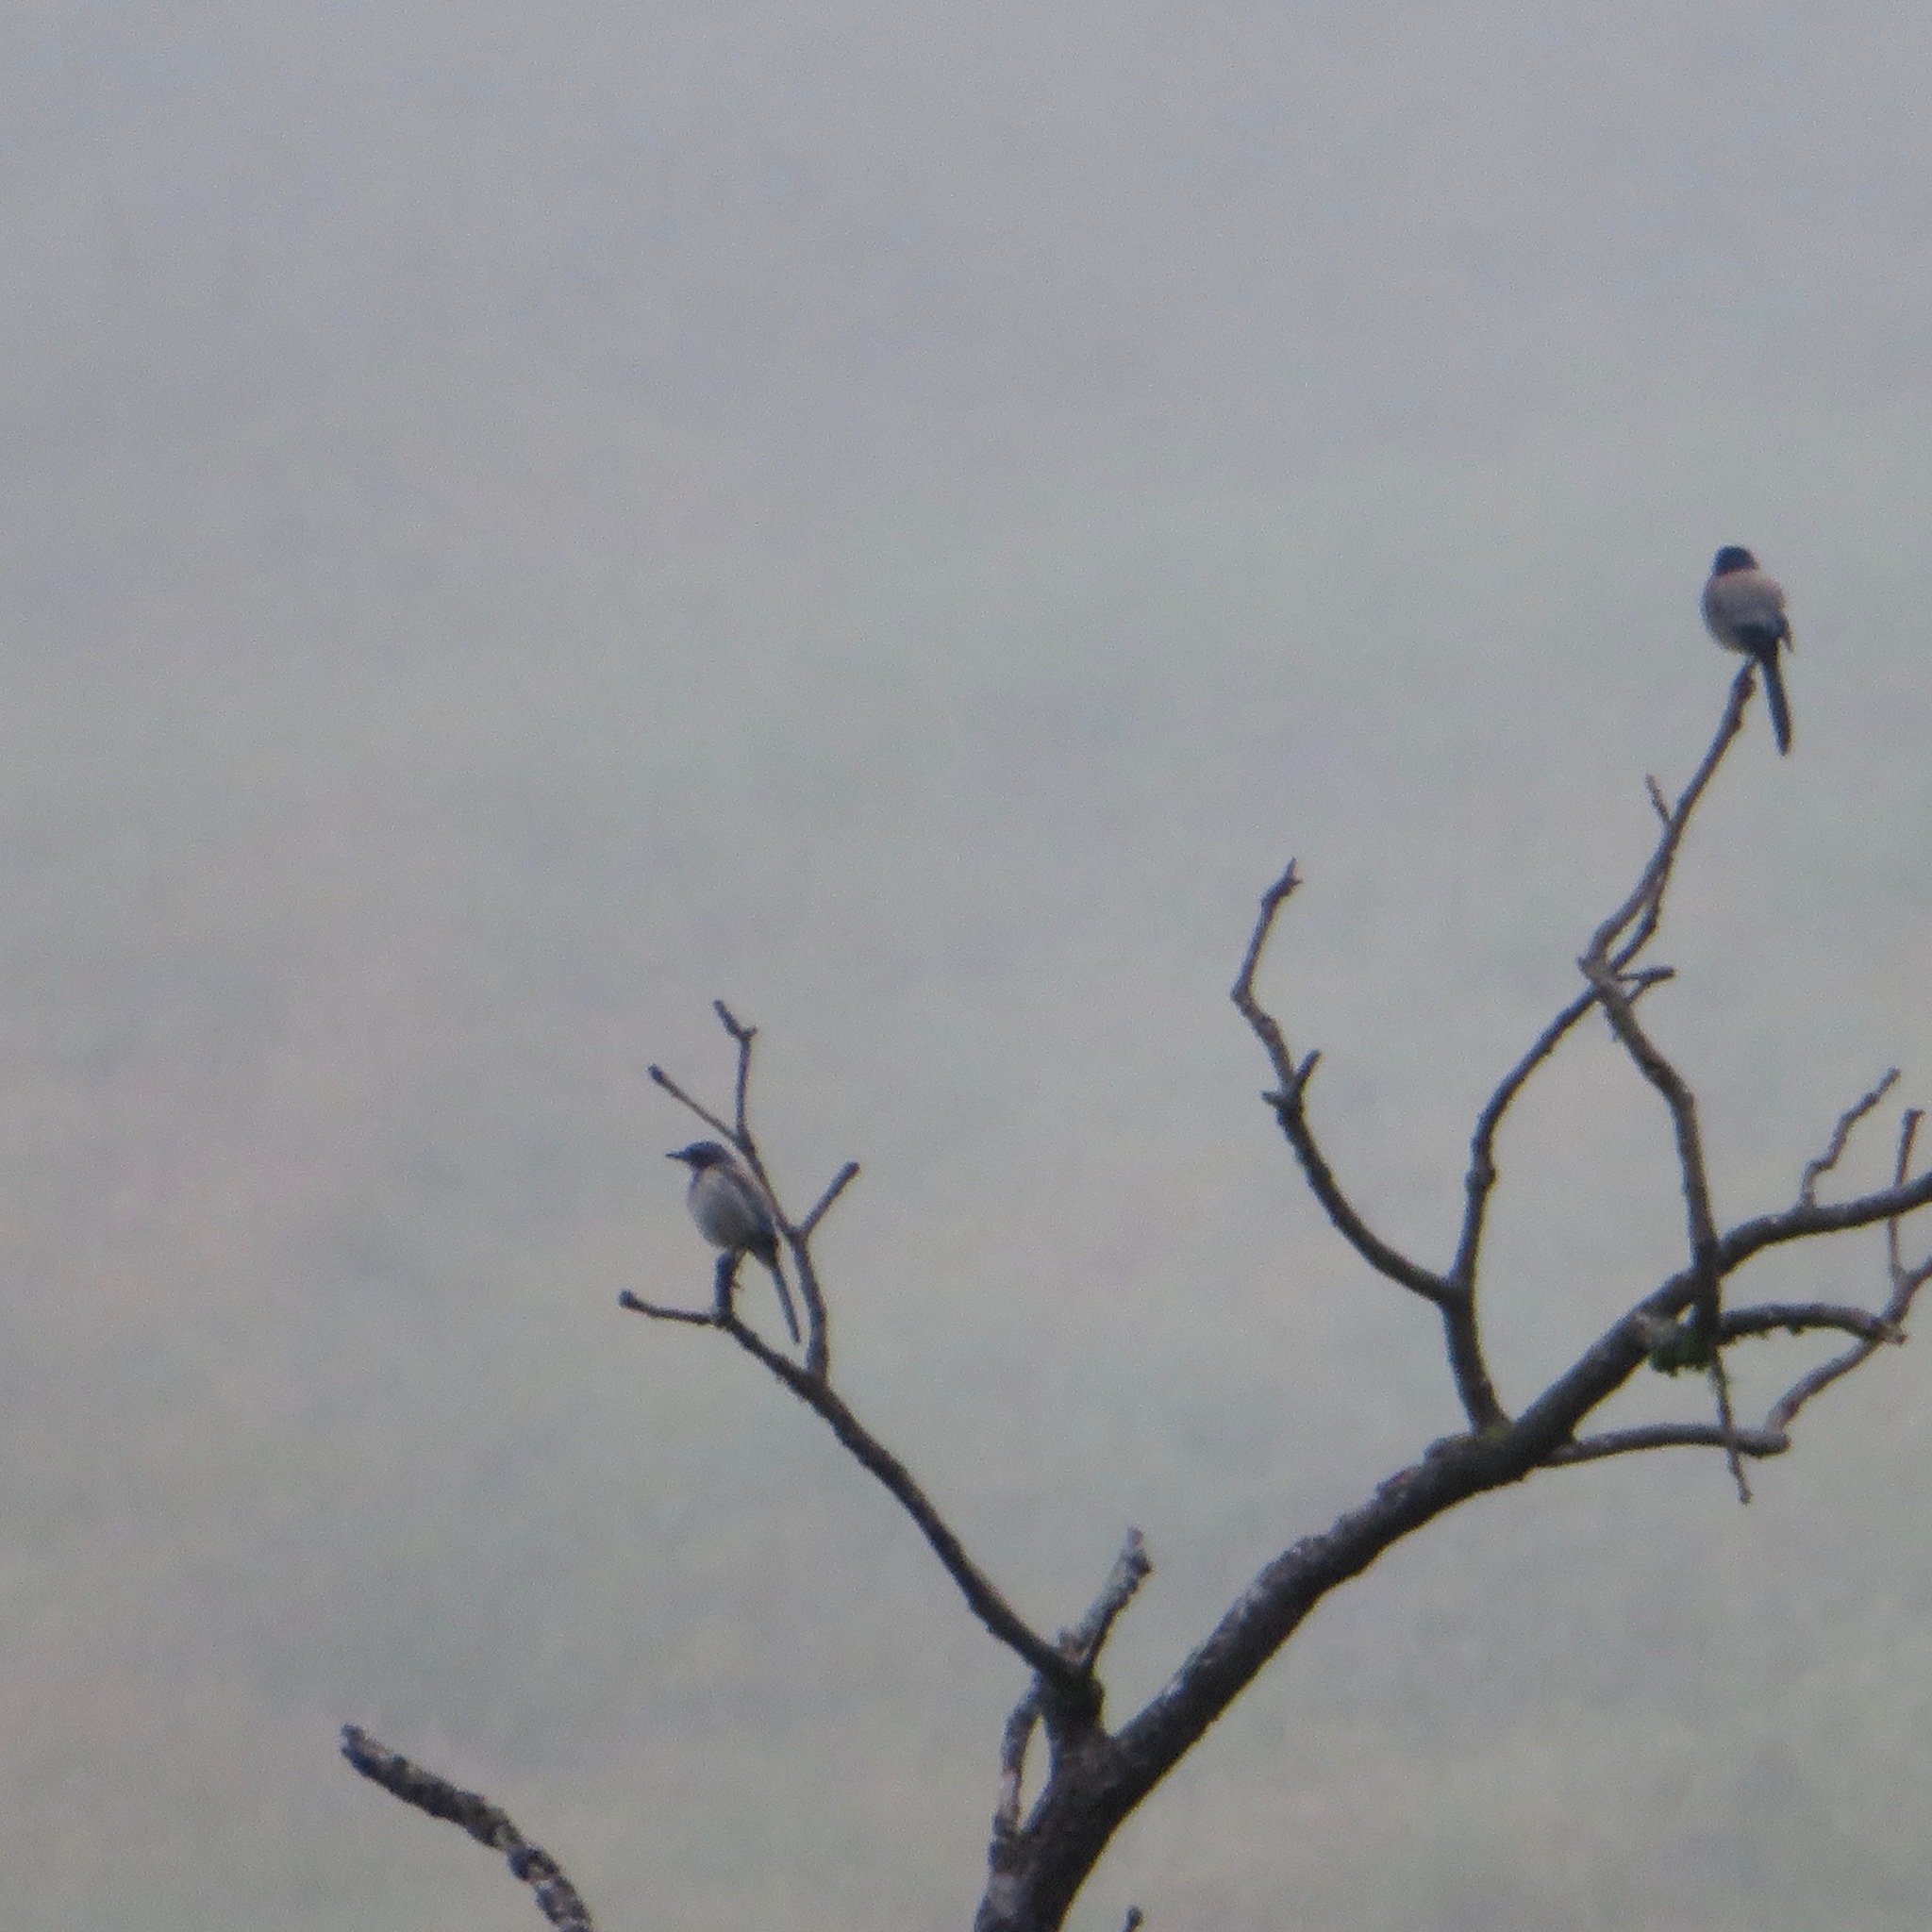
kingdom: Animalia
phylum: Chordata
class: Aves
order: Passeriformes
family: Corvidae
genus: Aphelocoma
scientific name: Aphelocoma californica
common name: California scrub-jay
